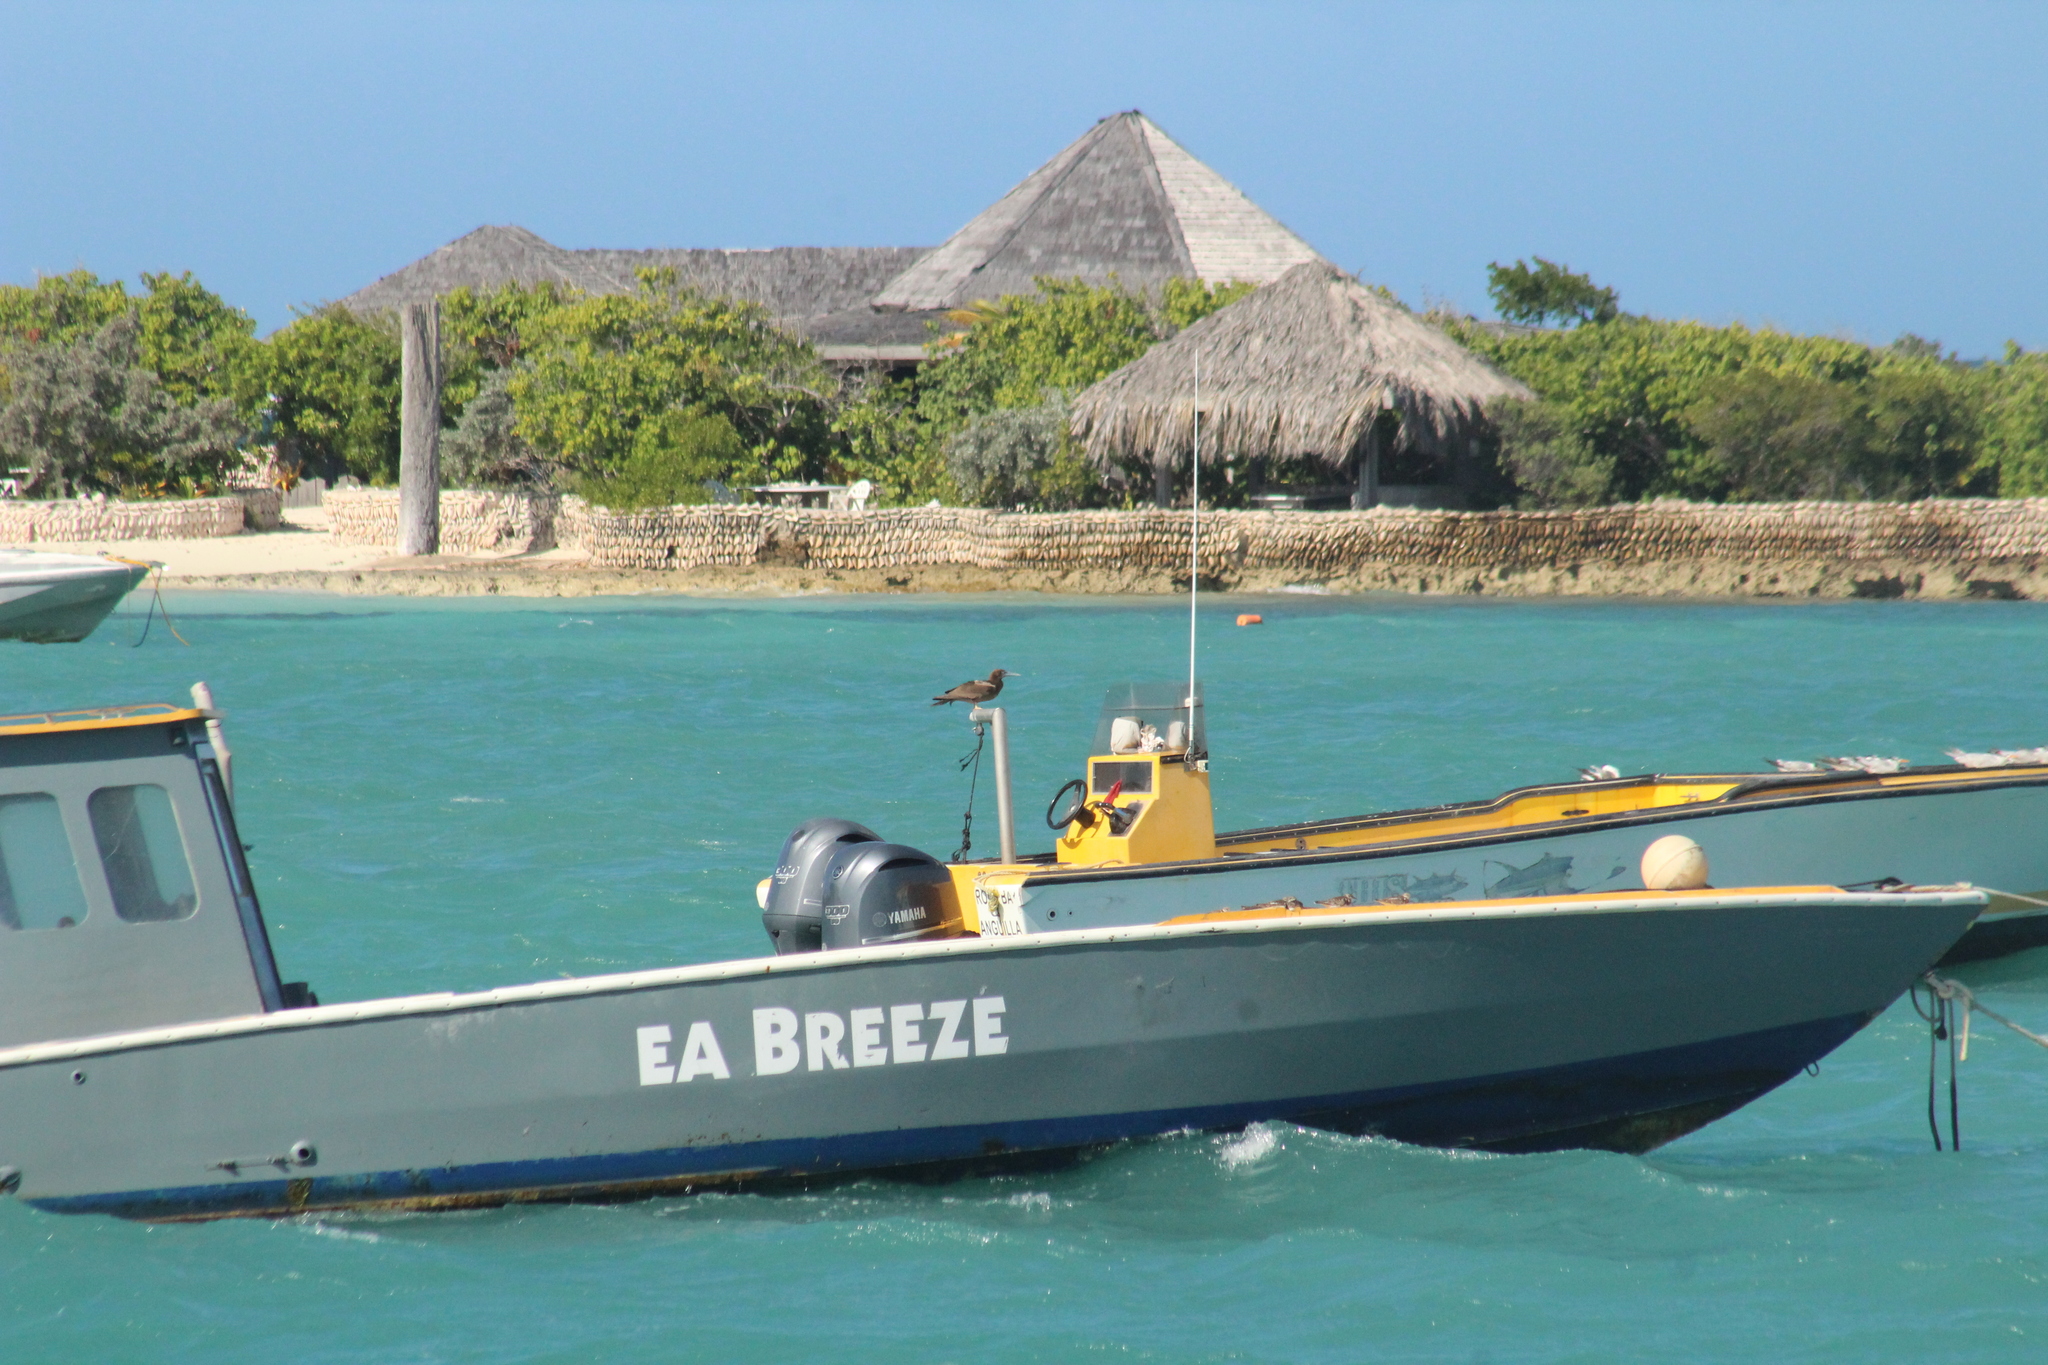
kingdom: Animalia
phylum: Chordata
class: Aves
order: Suliformes
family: Sulidae
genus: Sula
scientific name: Sula leucogaster
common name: Brown booby
